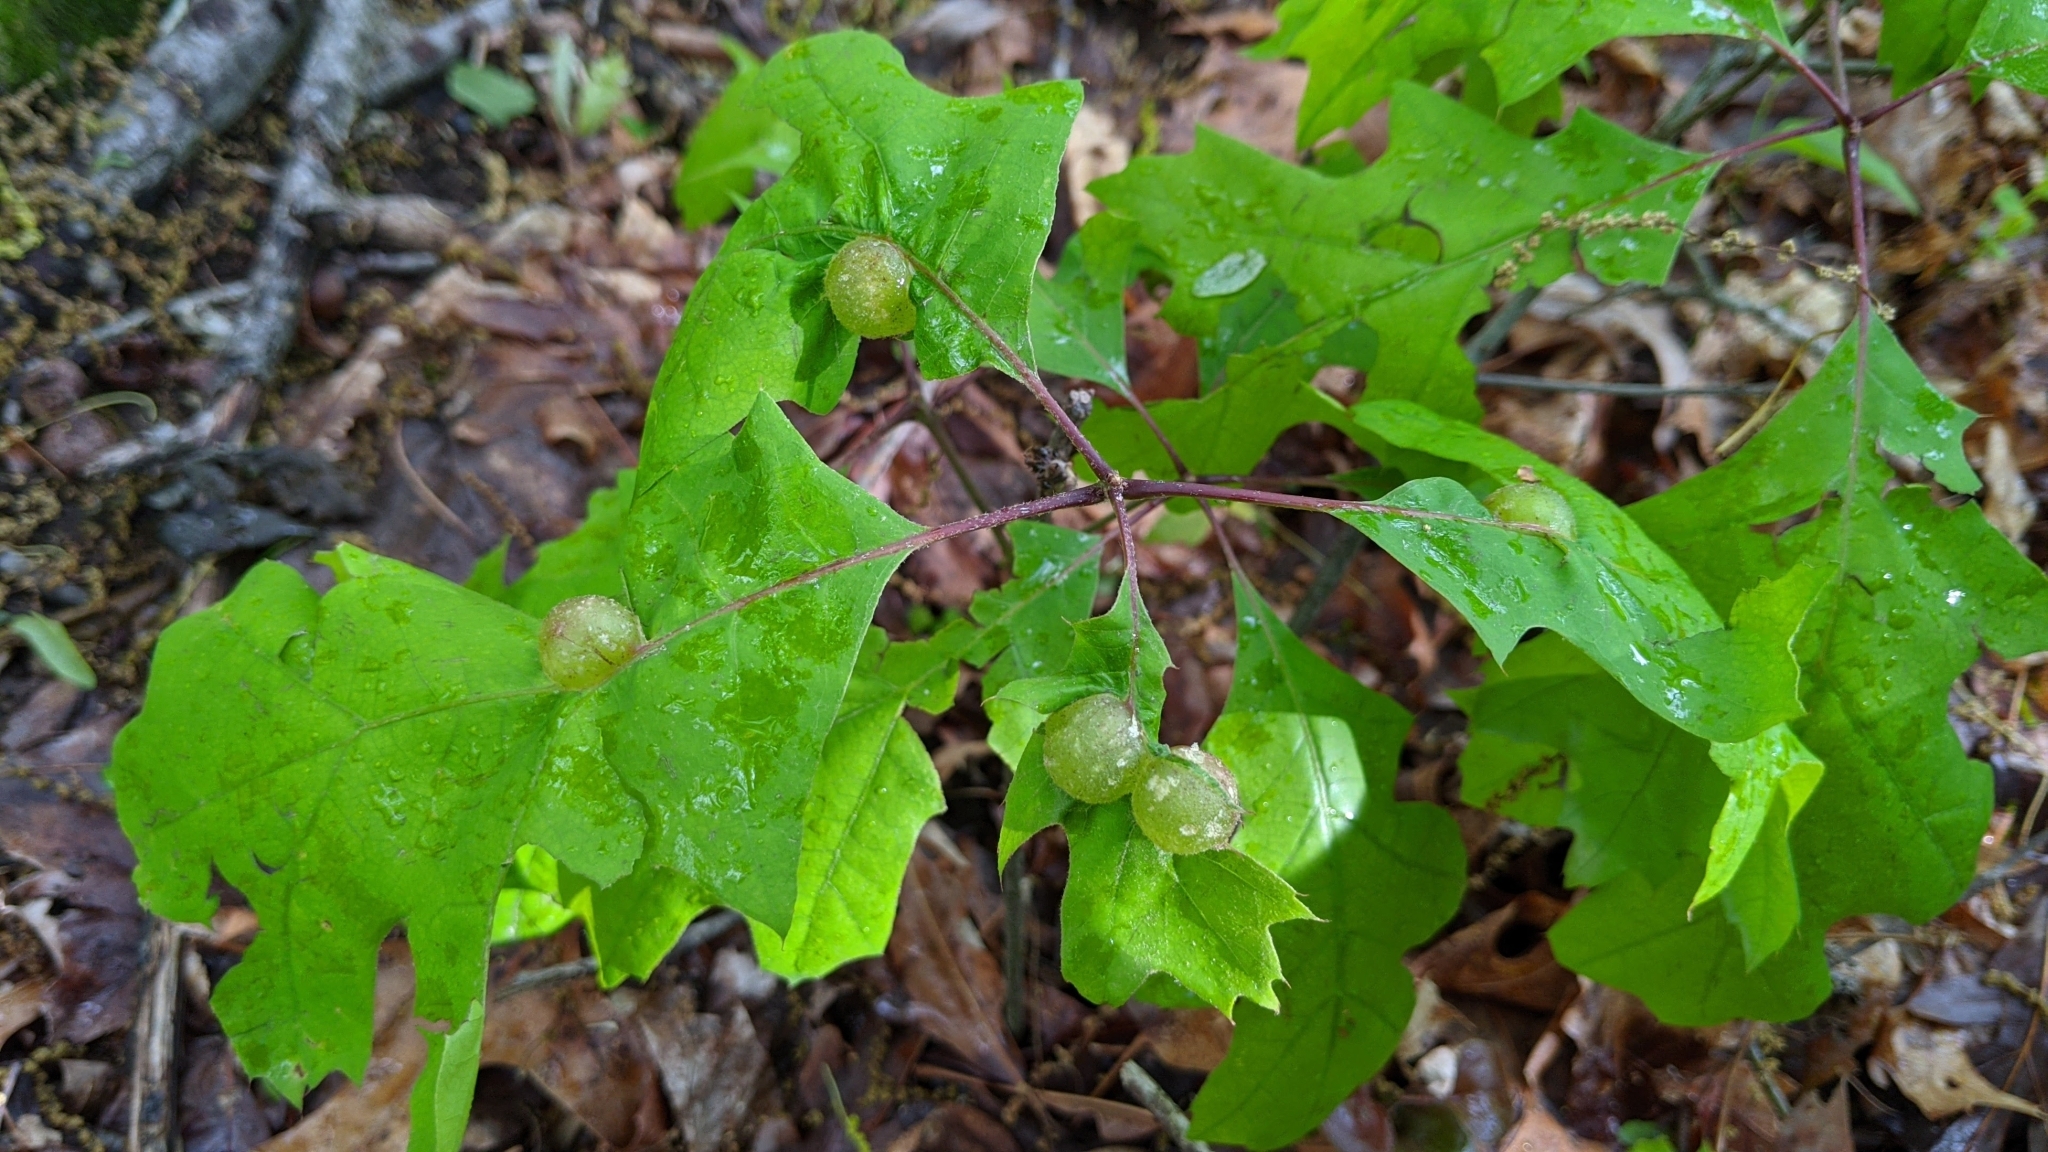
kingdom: Animalia
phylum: Arthropoda
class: Insecta
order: Hymenoptera
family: Cynipidae
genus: Dryocosmus
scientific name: Dryocosmus quercuspalustris
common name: Succulent oak gall wasp
